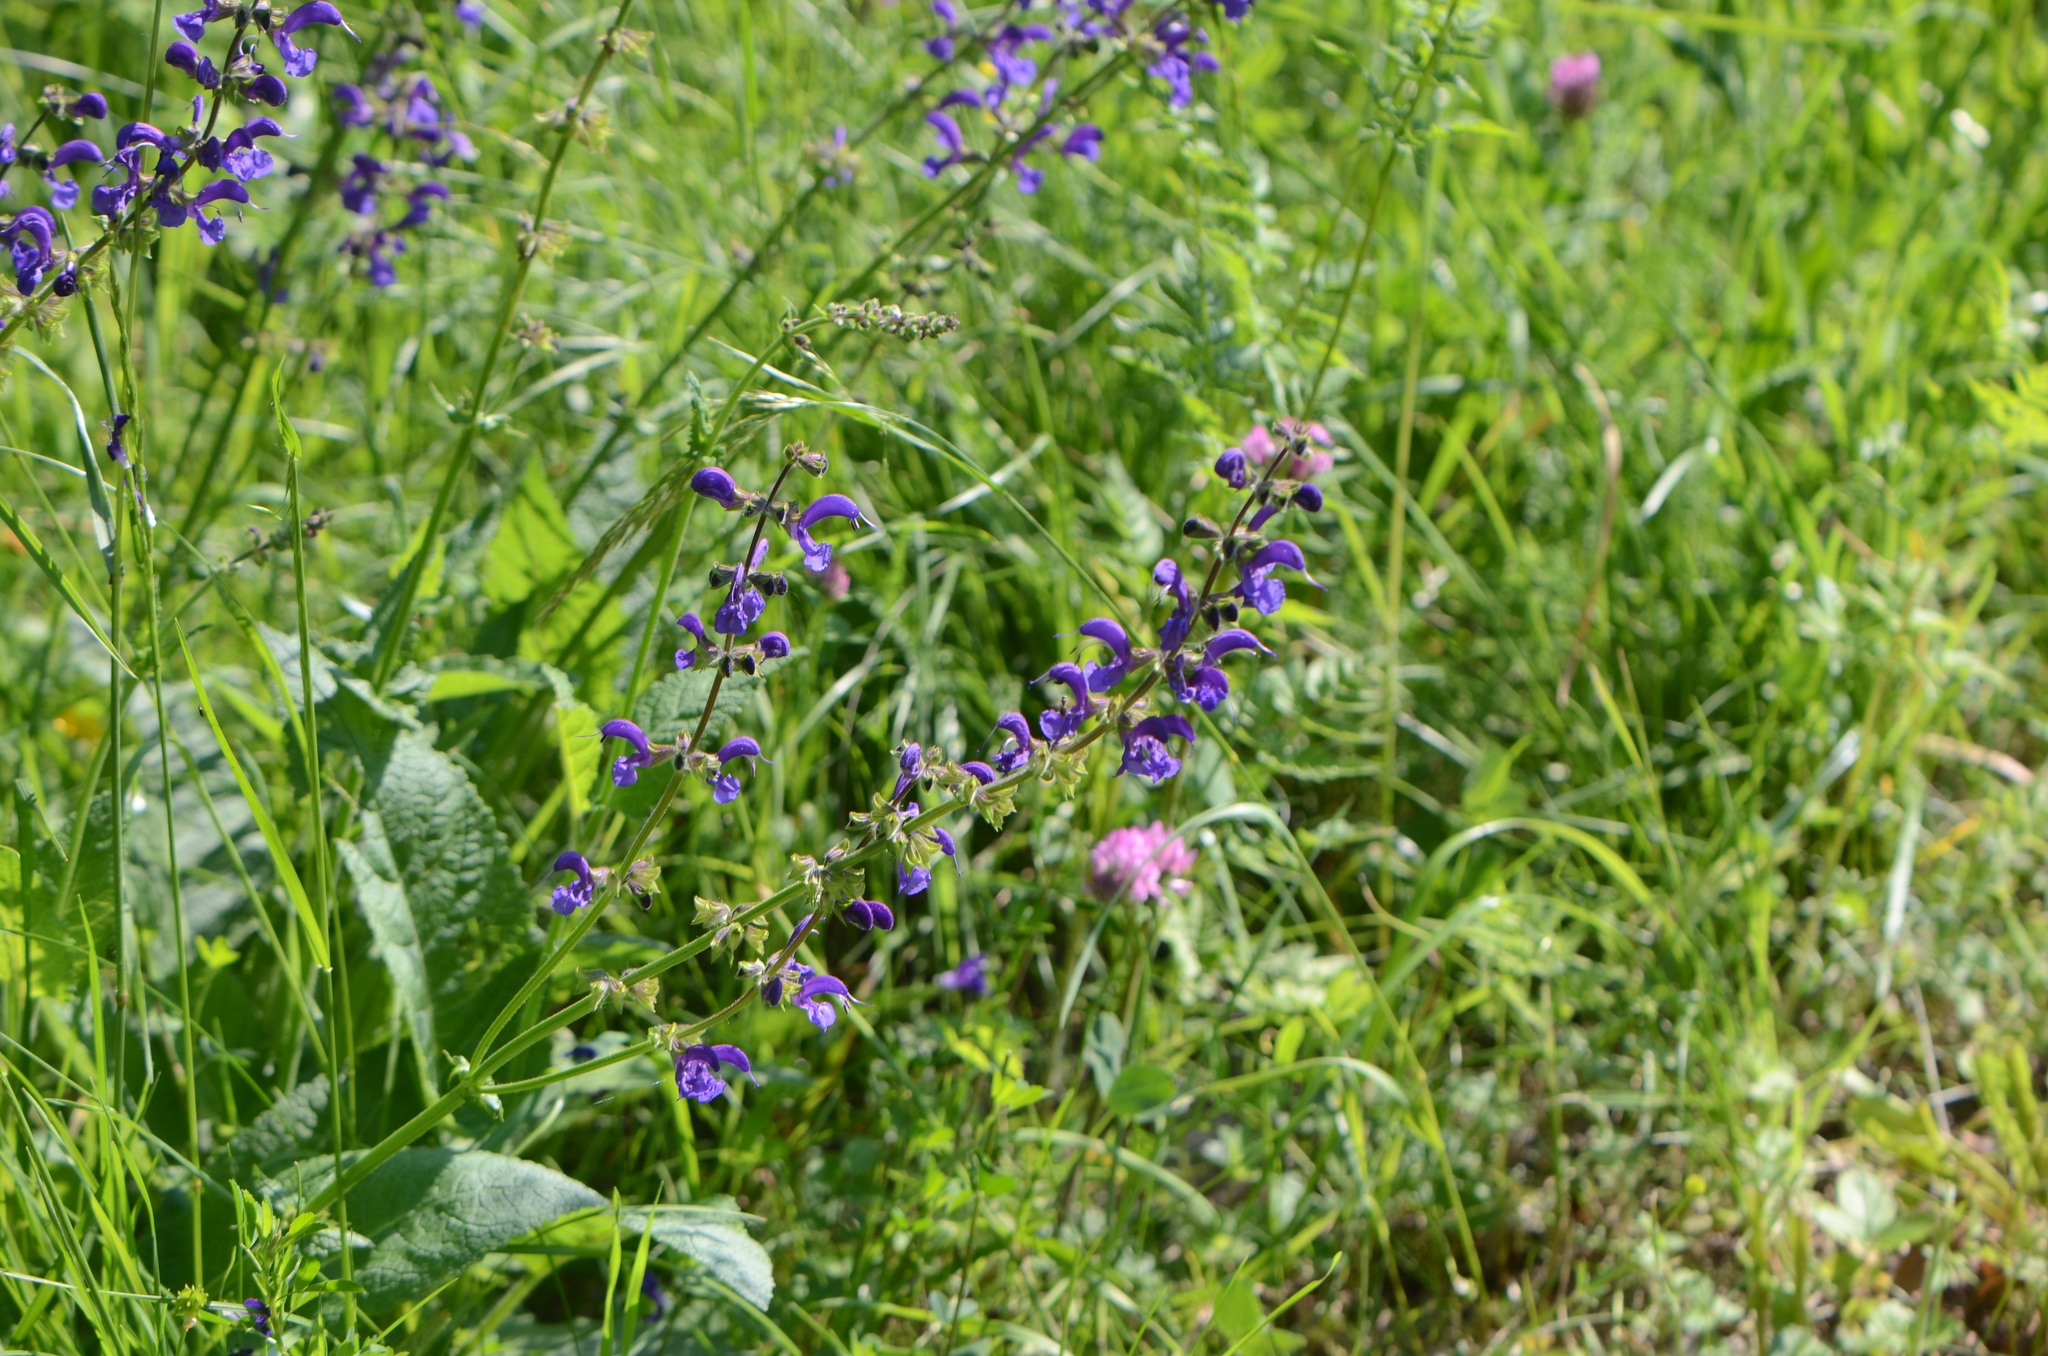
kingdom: Plantae
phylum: Tracheophyta
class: Magnoliopsida
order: Lamiales
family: Lamiaceae
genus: Salvia
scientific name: Salvia pratensis
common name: Meadow sage
